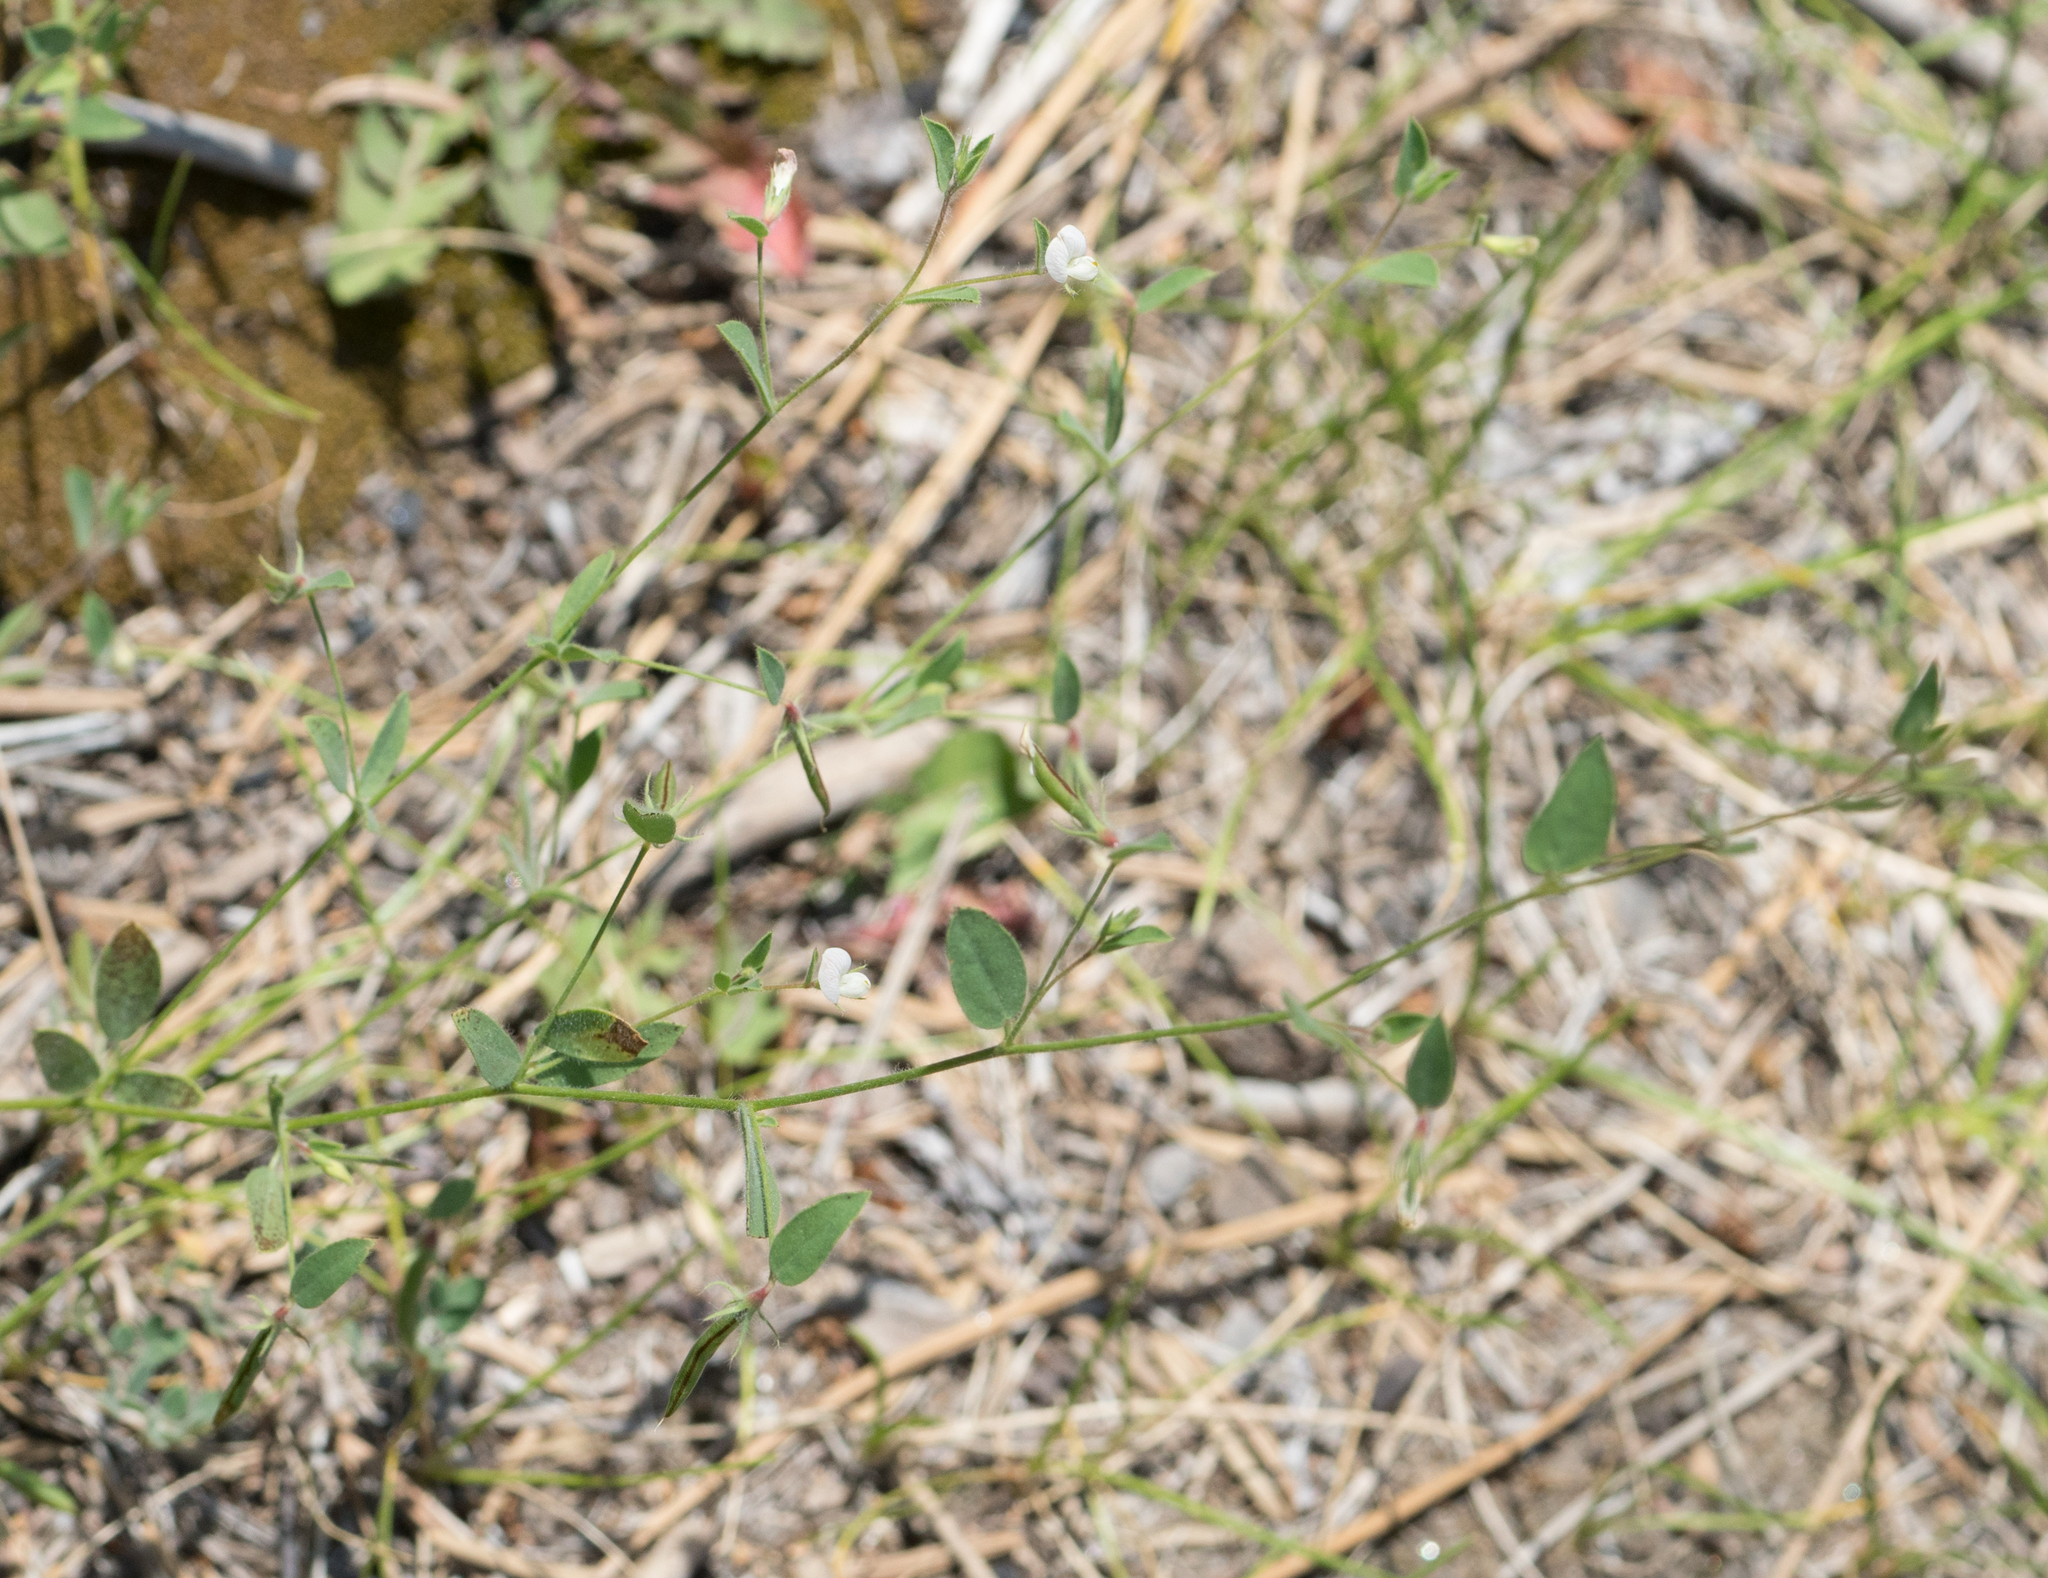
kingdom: Plantae
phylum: Tracheophyta
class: Magnoliopsida
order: Fabales
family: Fabaceae
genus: Acmispon
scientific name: Acmispon americanus
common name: American bird's-foot trefoil
